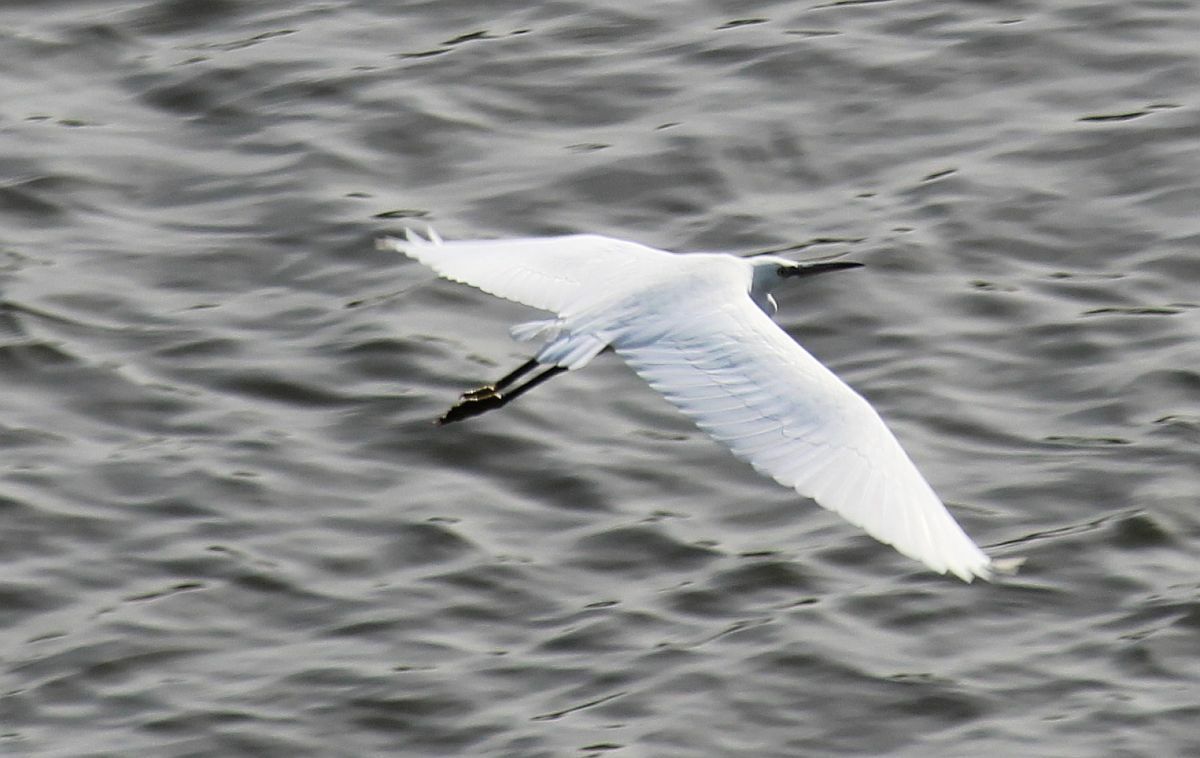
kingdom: Animalia
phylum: Chordata
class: Aves
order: Pelecaniformes
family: Ardeidae
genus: Egretta
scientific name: Egretta garzetta
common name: Little egret
